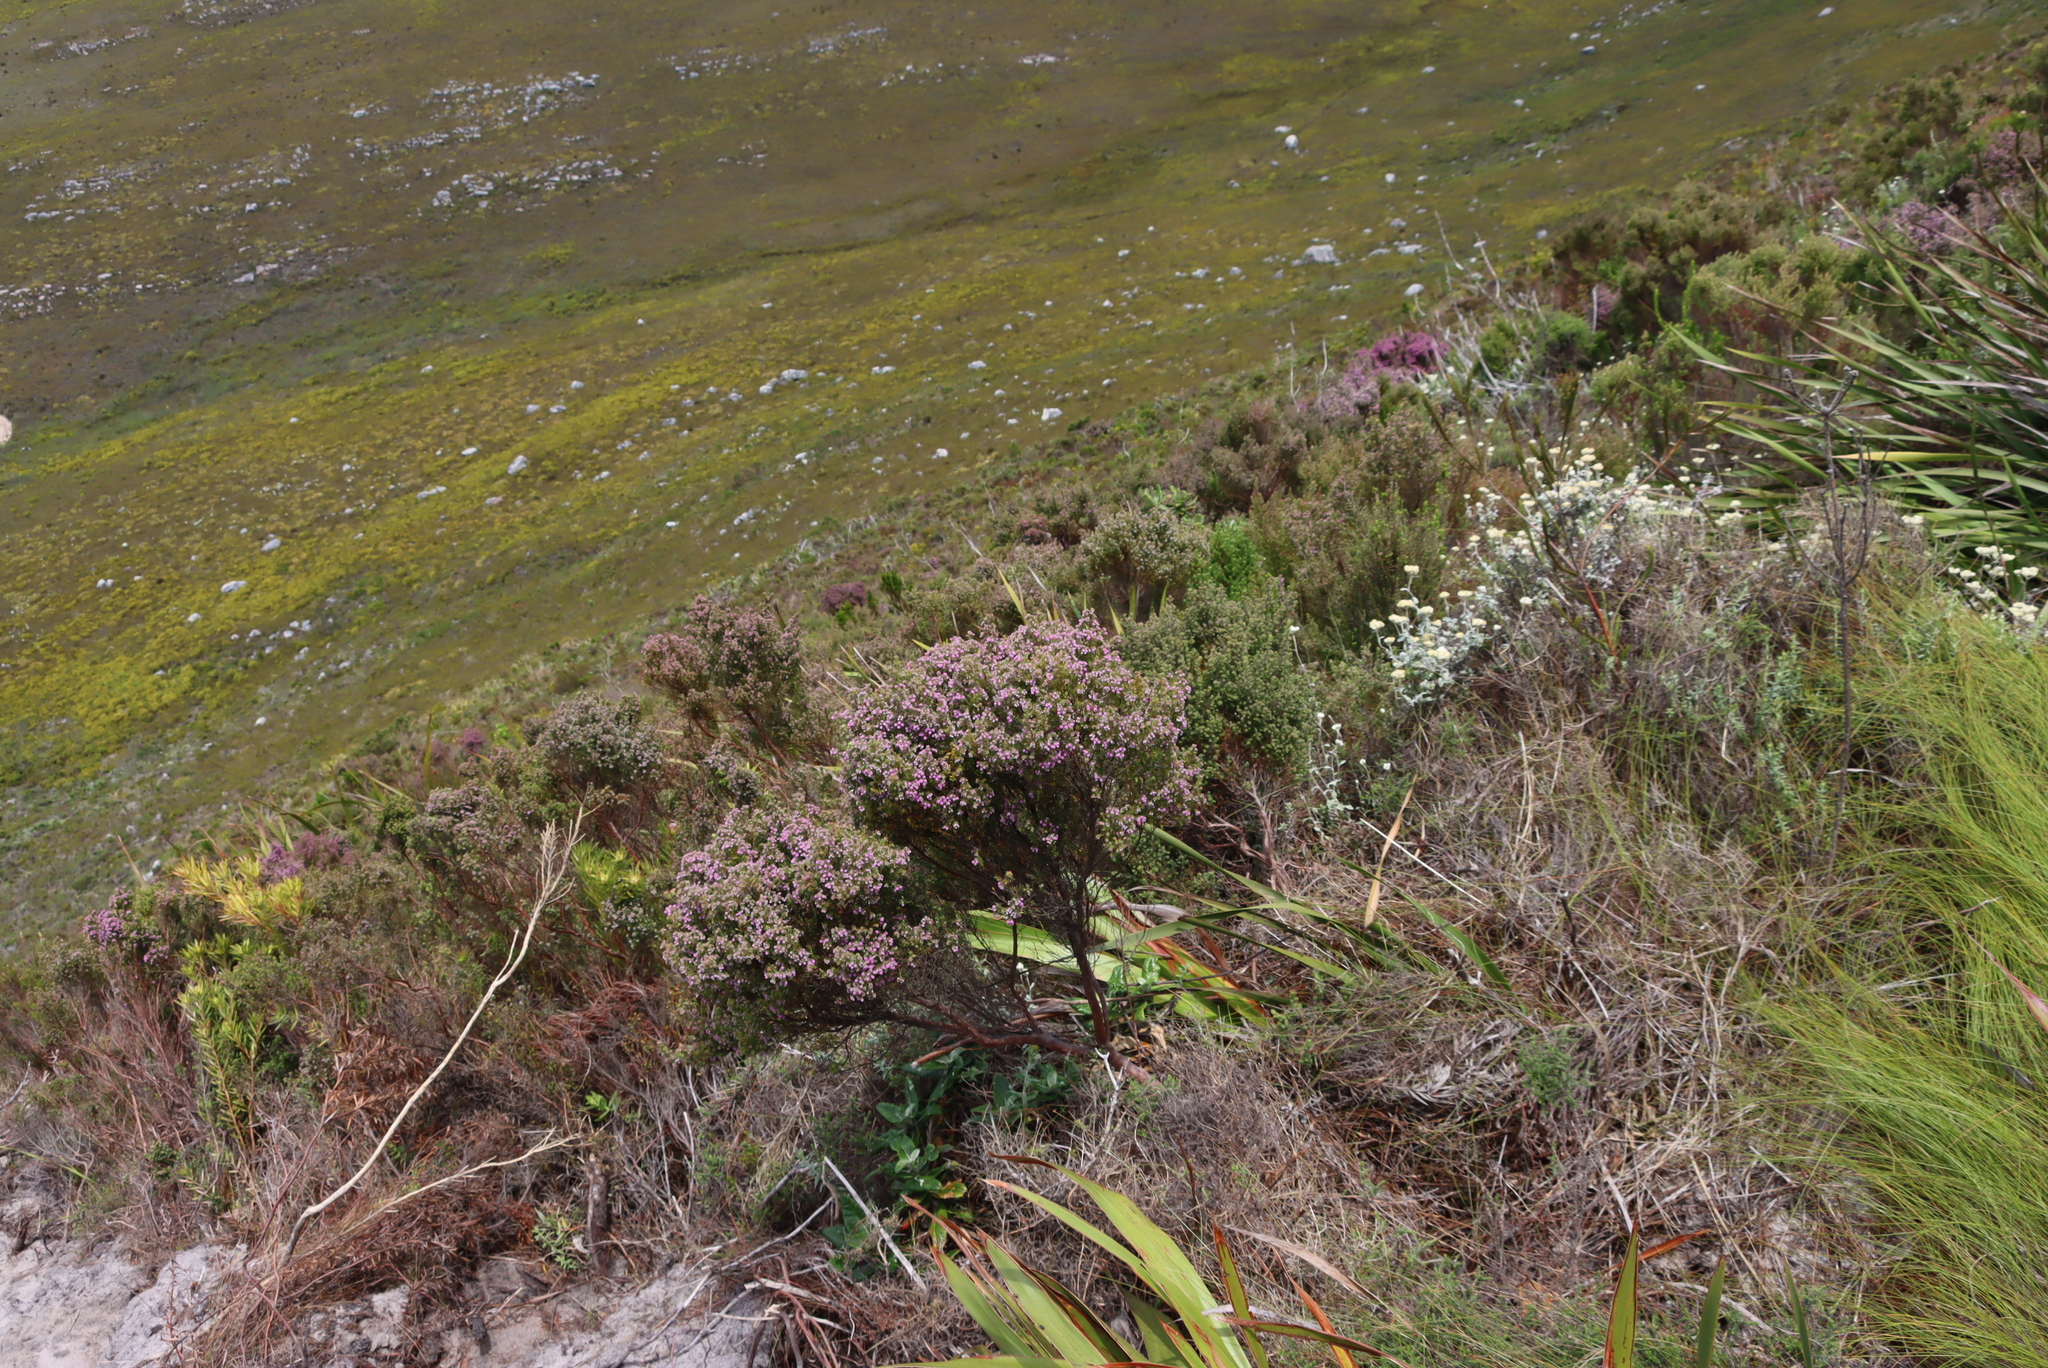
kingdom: Plantae
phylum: Tracheophyta
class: Magnoliopsida
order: Ericales
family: Ericaceae
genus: Erica
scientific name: Erica hirtiflora
